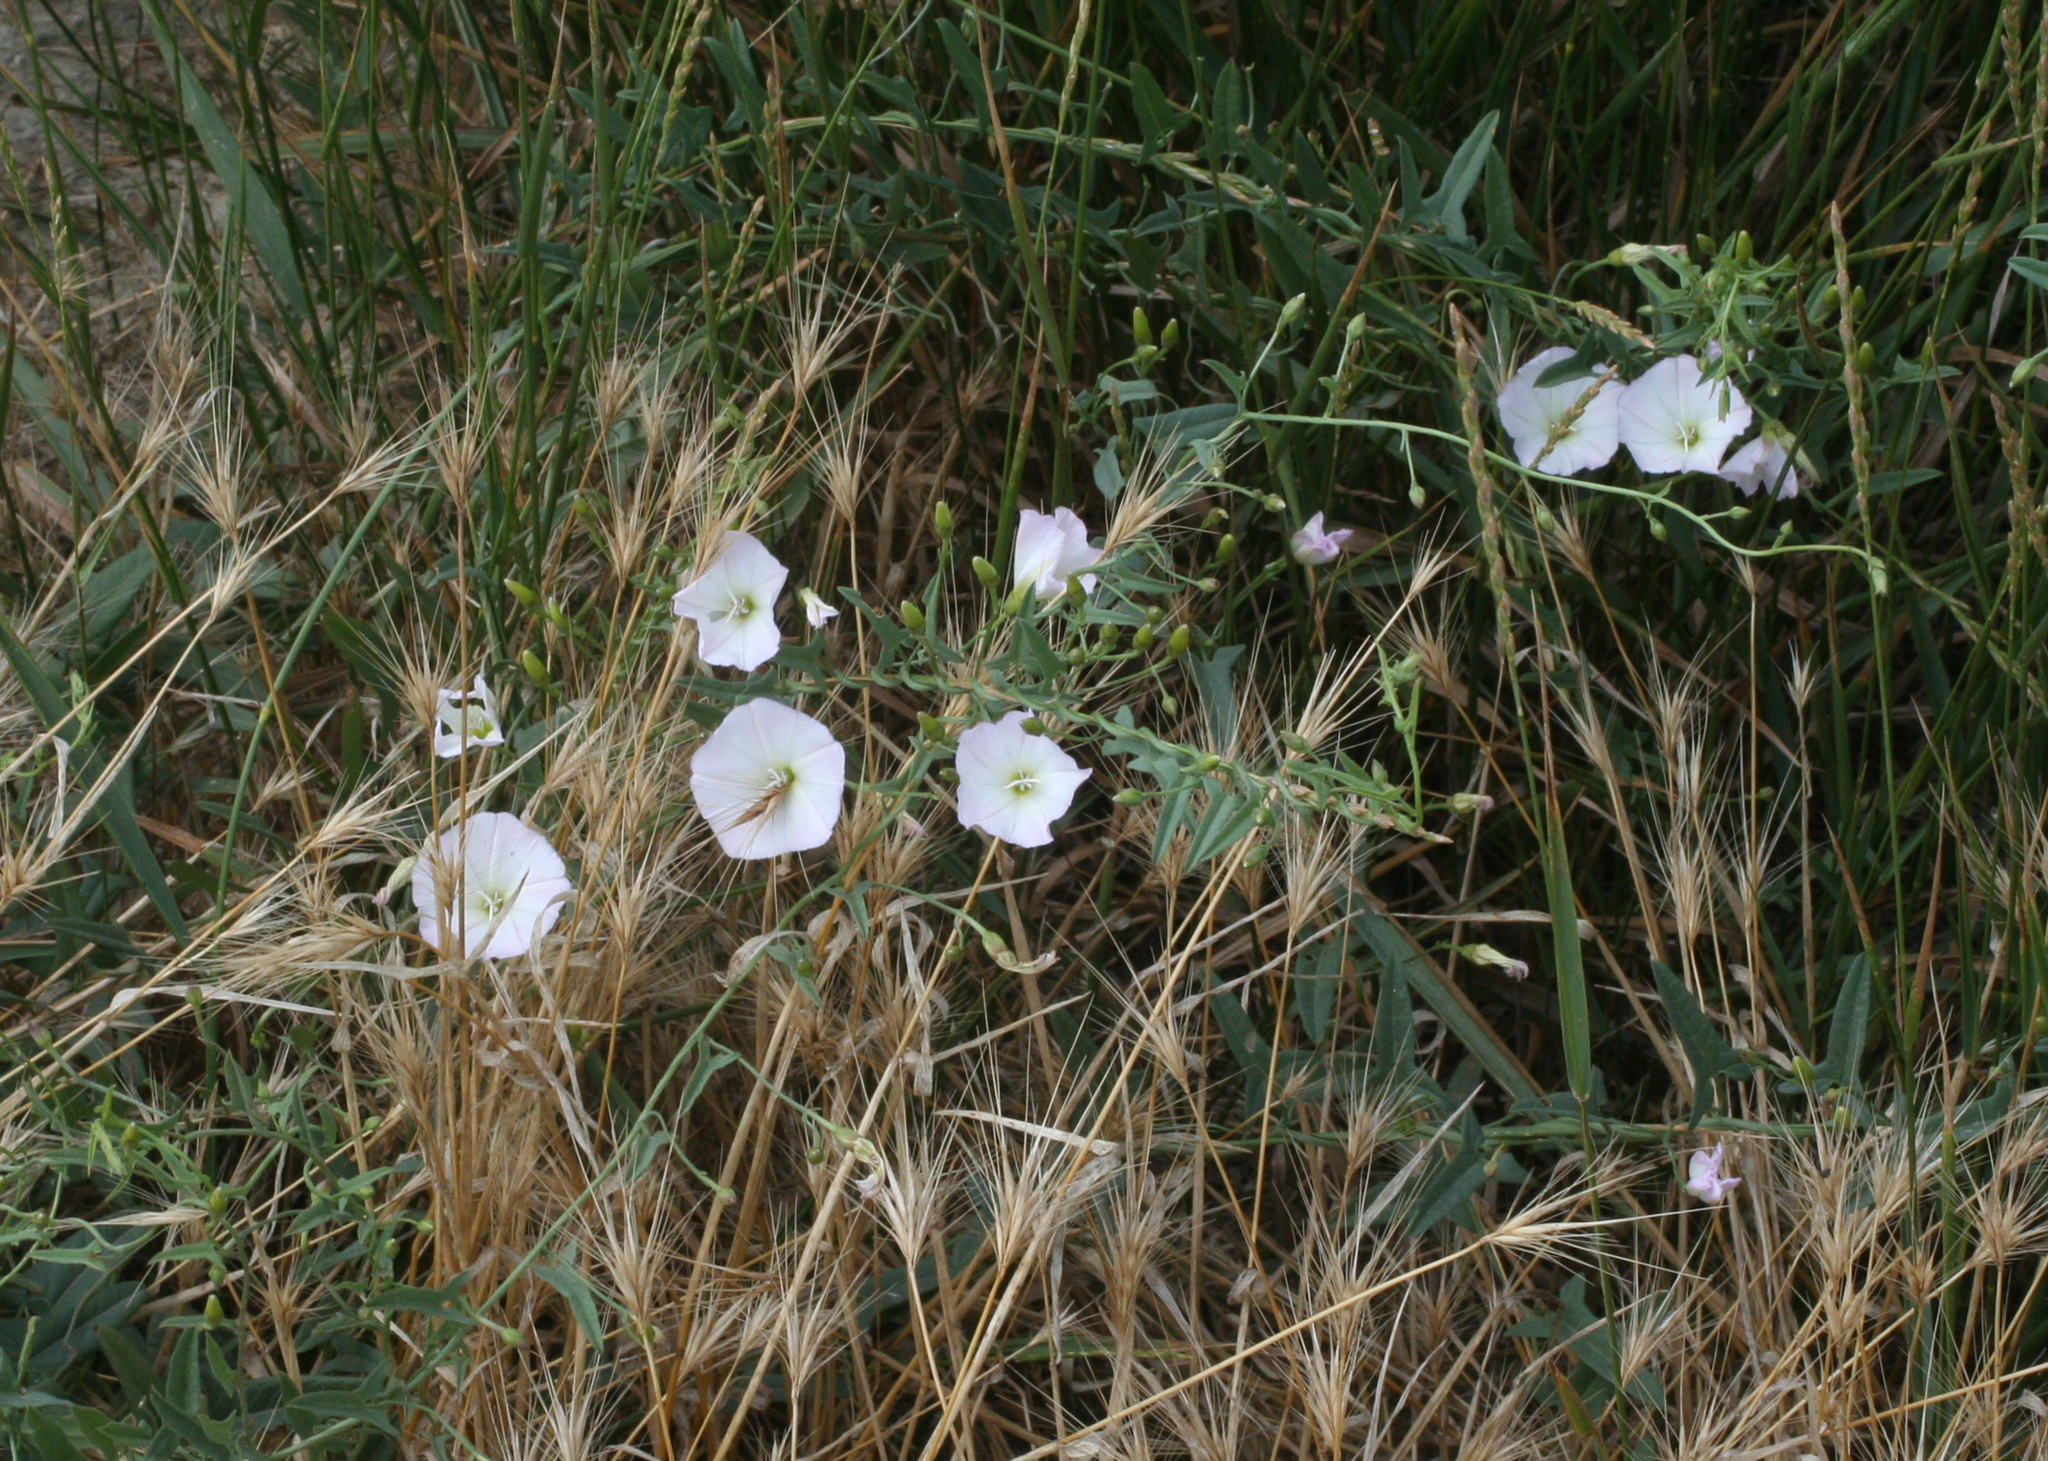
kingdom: Plantae
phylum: Tracheophyta
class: Magnoliopsida
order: Solanales
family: Convolvulaceae
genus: Convolvulus
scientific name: Convolvulus arvensis
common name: Field bindweed
